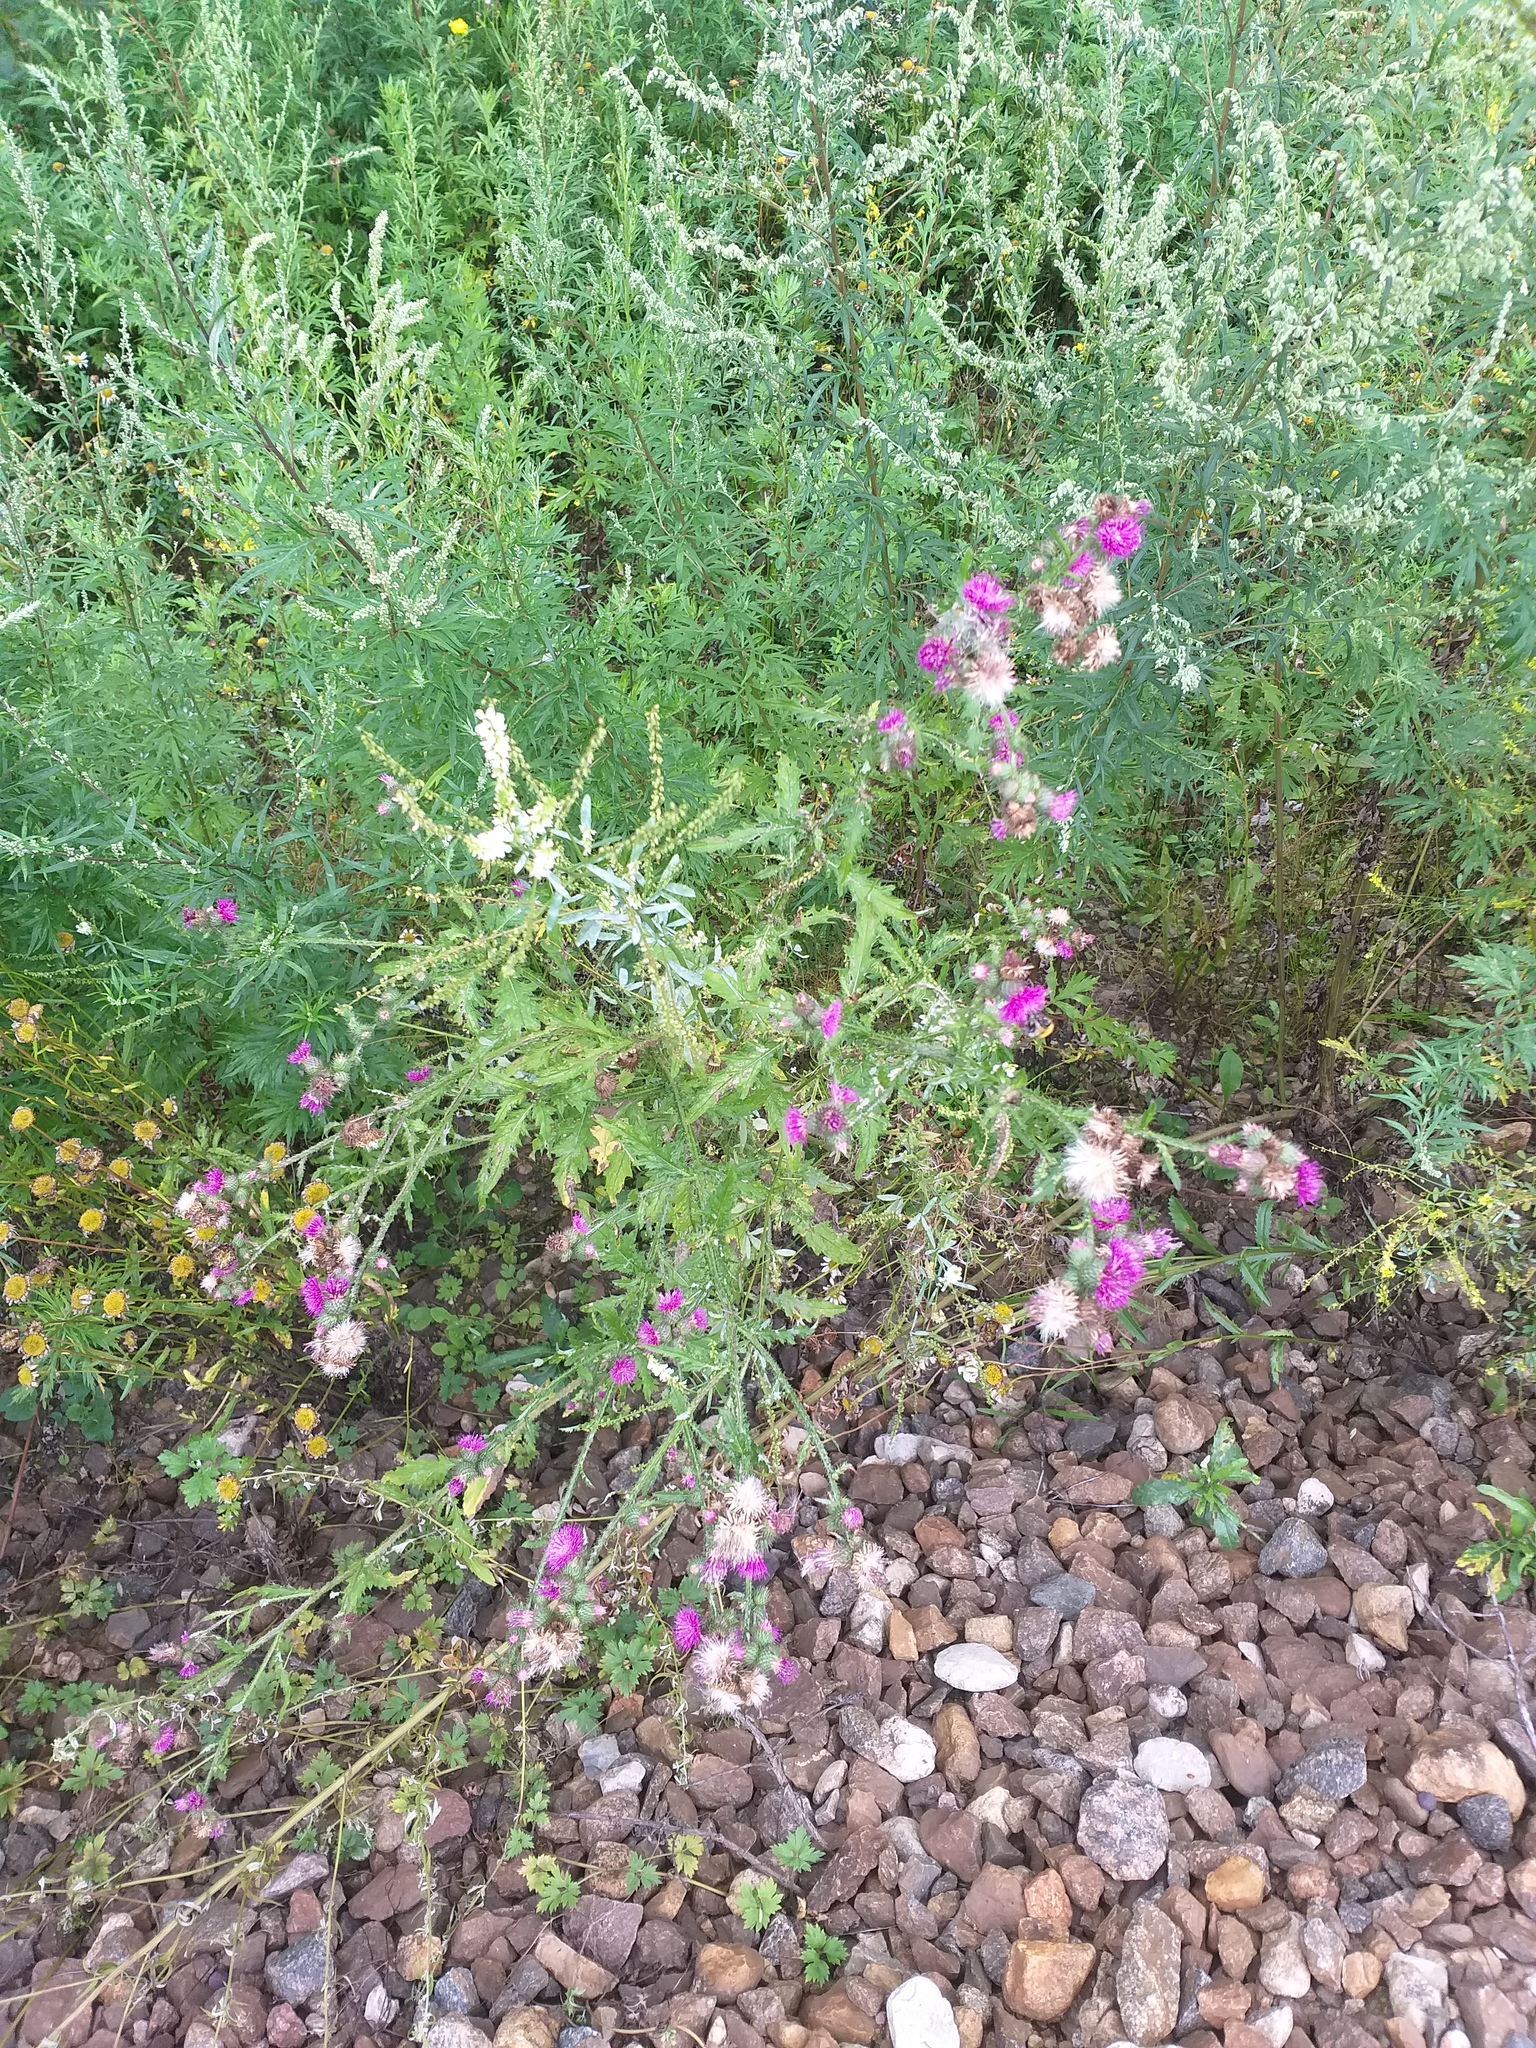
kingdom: Plantae
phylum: Tracheophyta
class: Magnoliopsida
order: Asterales
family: Asteraceae
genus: Carduus
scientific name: Carduus crispus
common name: Welted thistle
